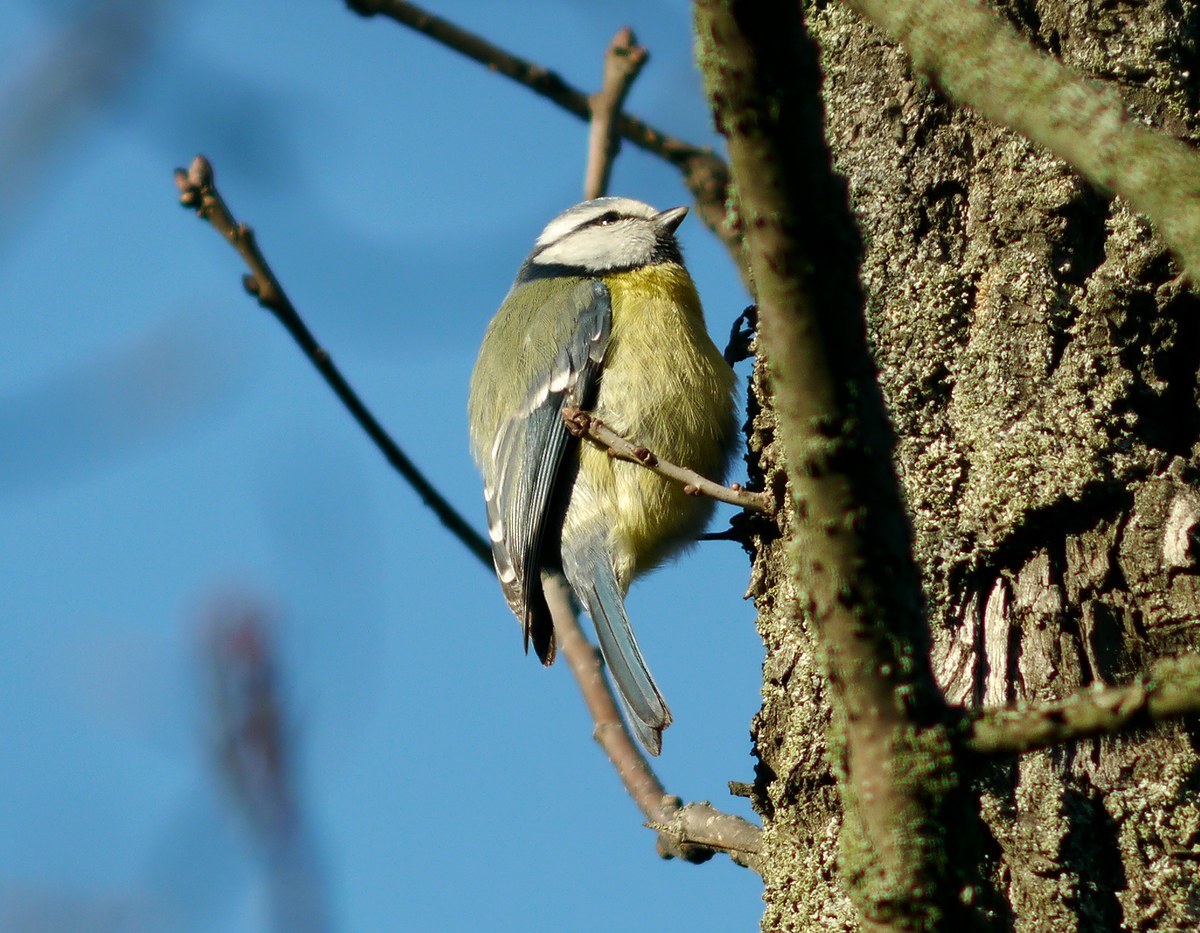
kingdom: Animalia
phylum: Chordata
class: Aves
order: Passeriformes
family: Paridae
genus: Cyanistes
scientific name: Cyanistes caeruleus
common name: Eurasian blue tit
